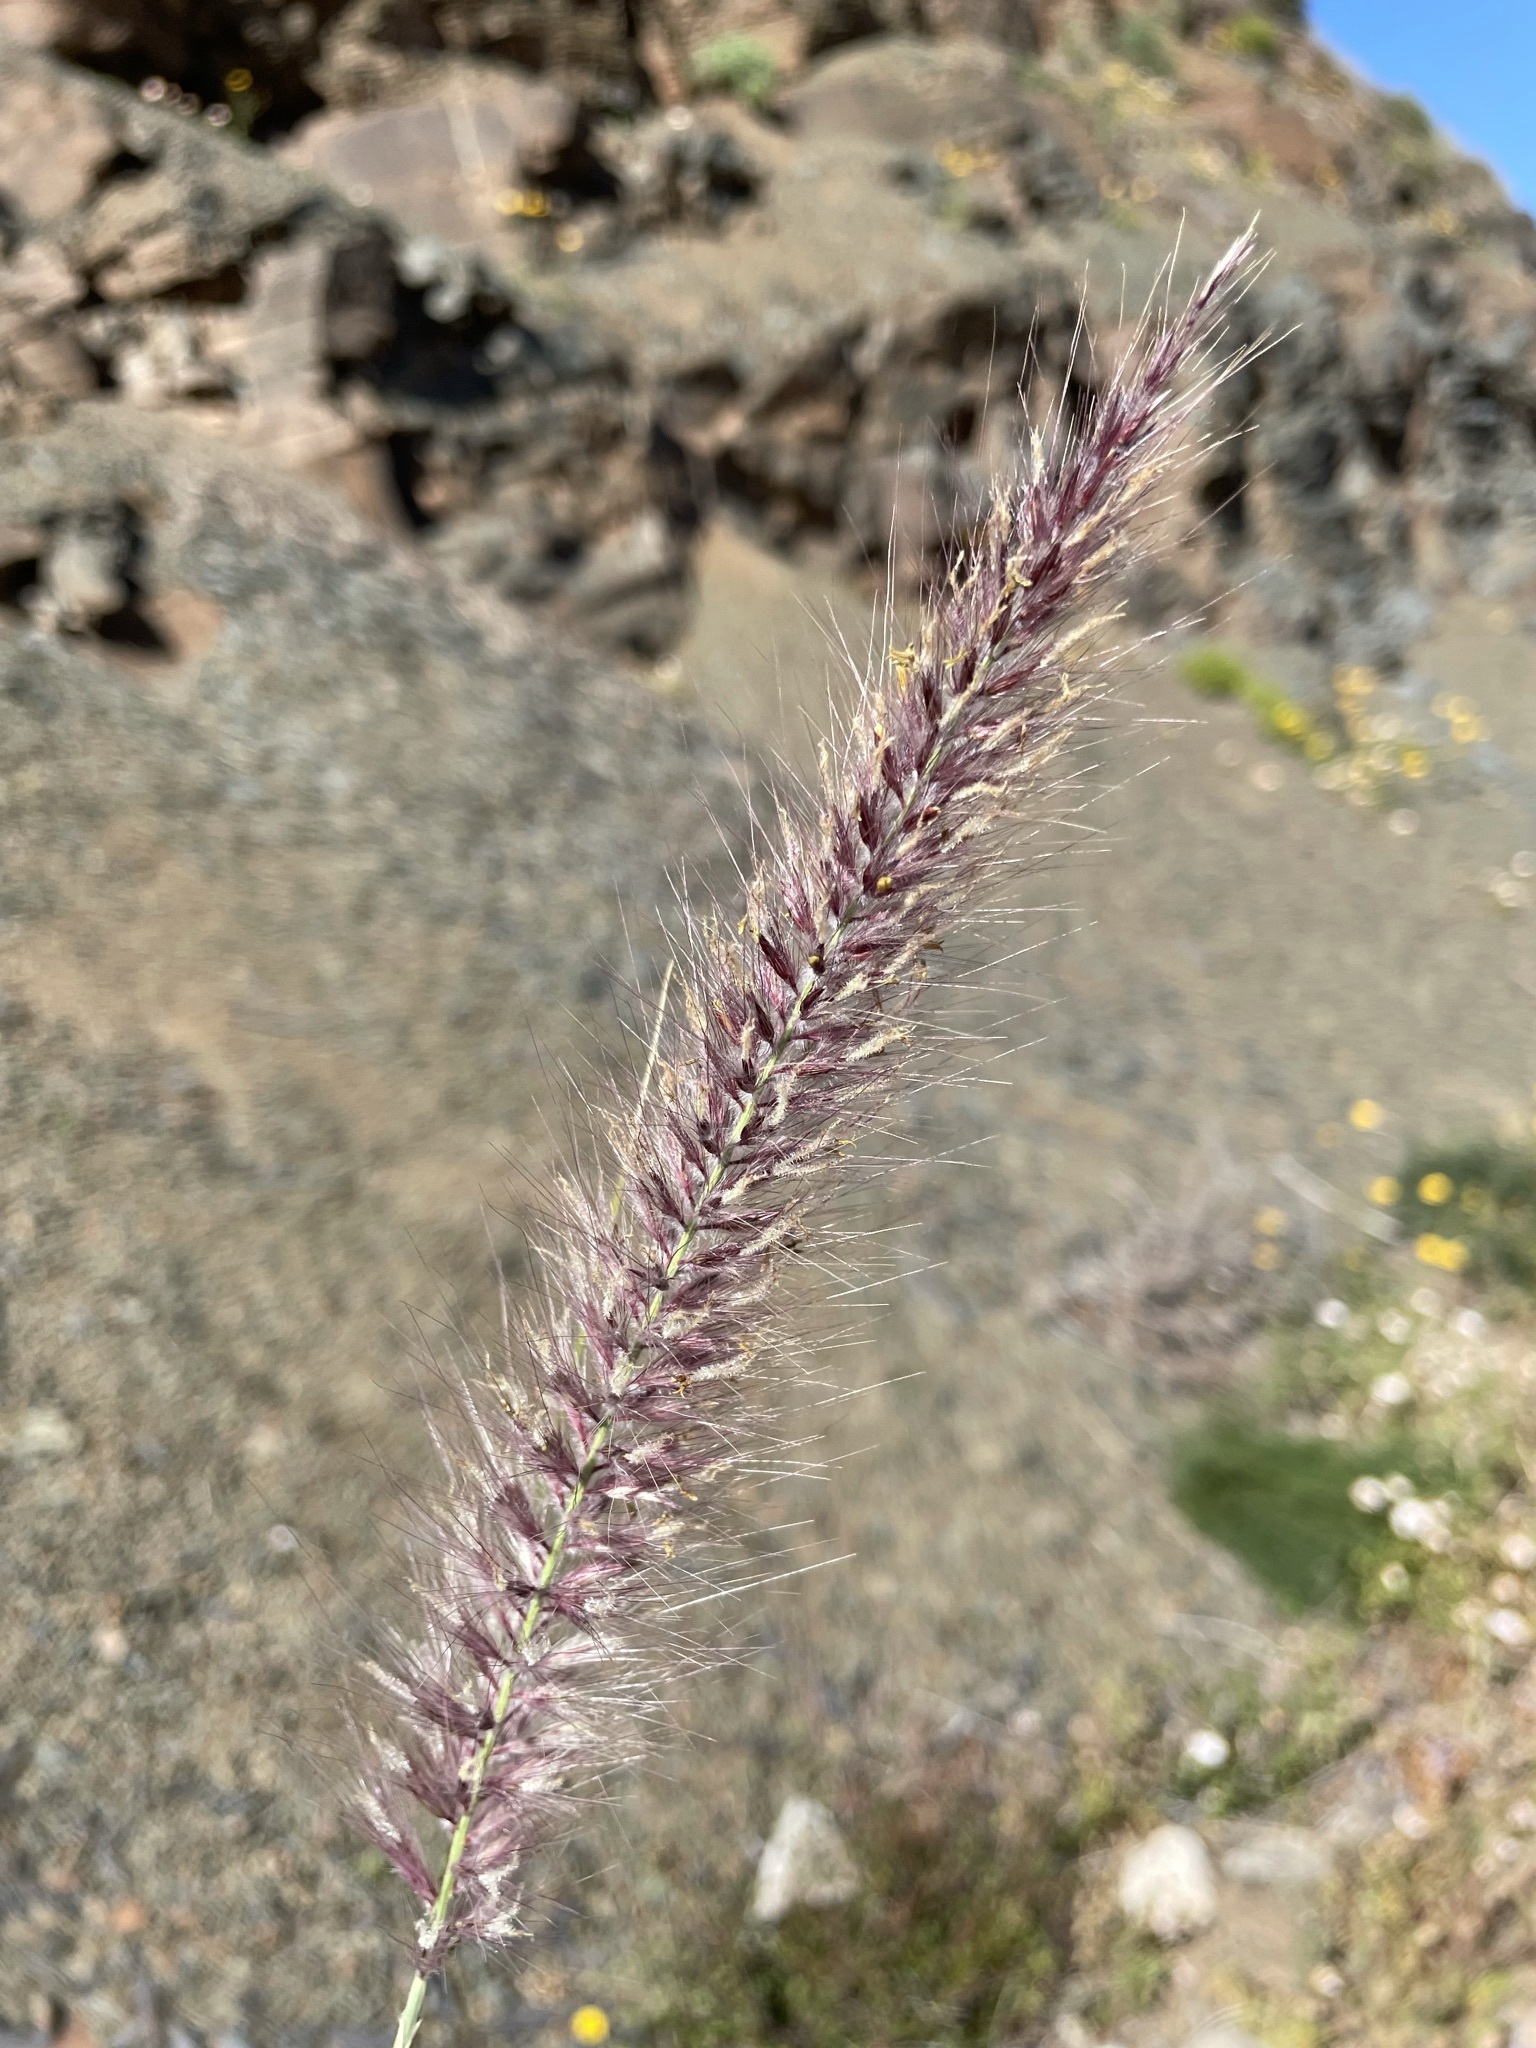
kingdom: Plantae
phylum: Tracheophyta
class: Liliopsida
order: Poales
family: Poaceae
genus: Cenchrus
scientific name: Cenchrus setaceus
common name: Crimson fountaingrass
